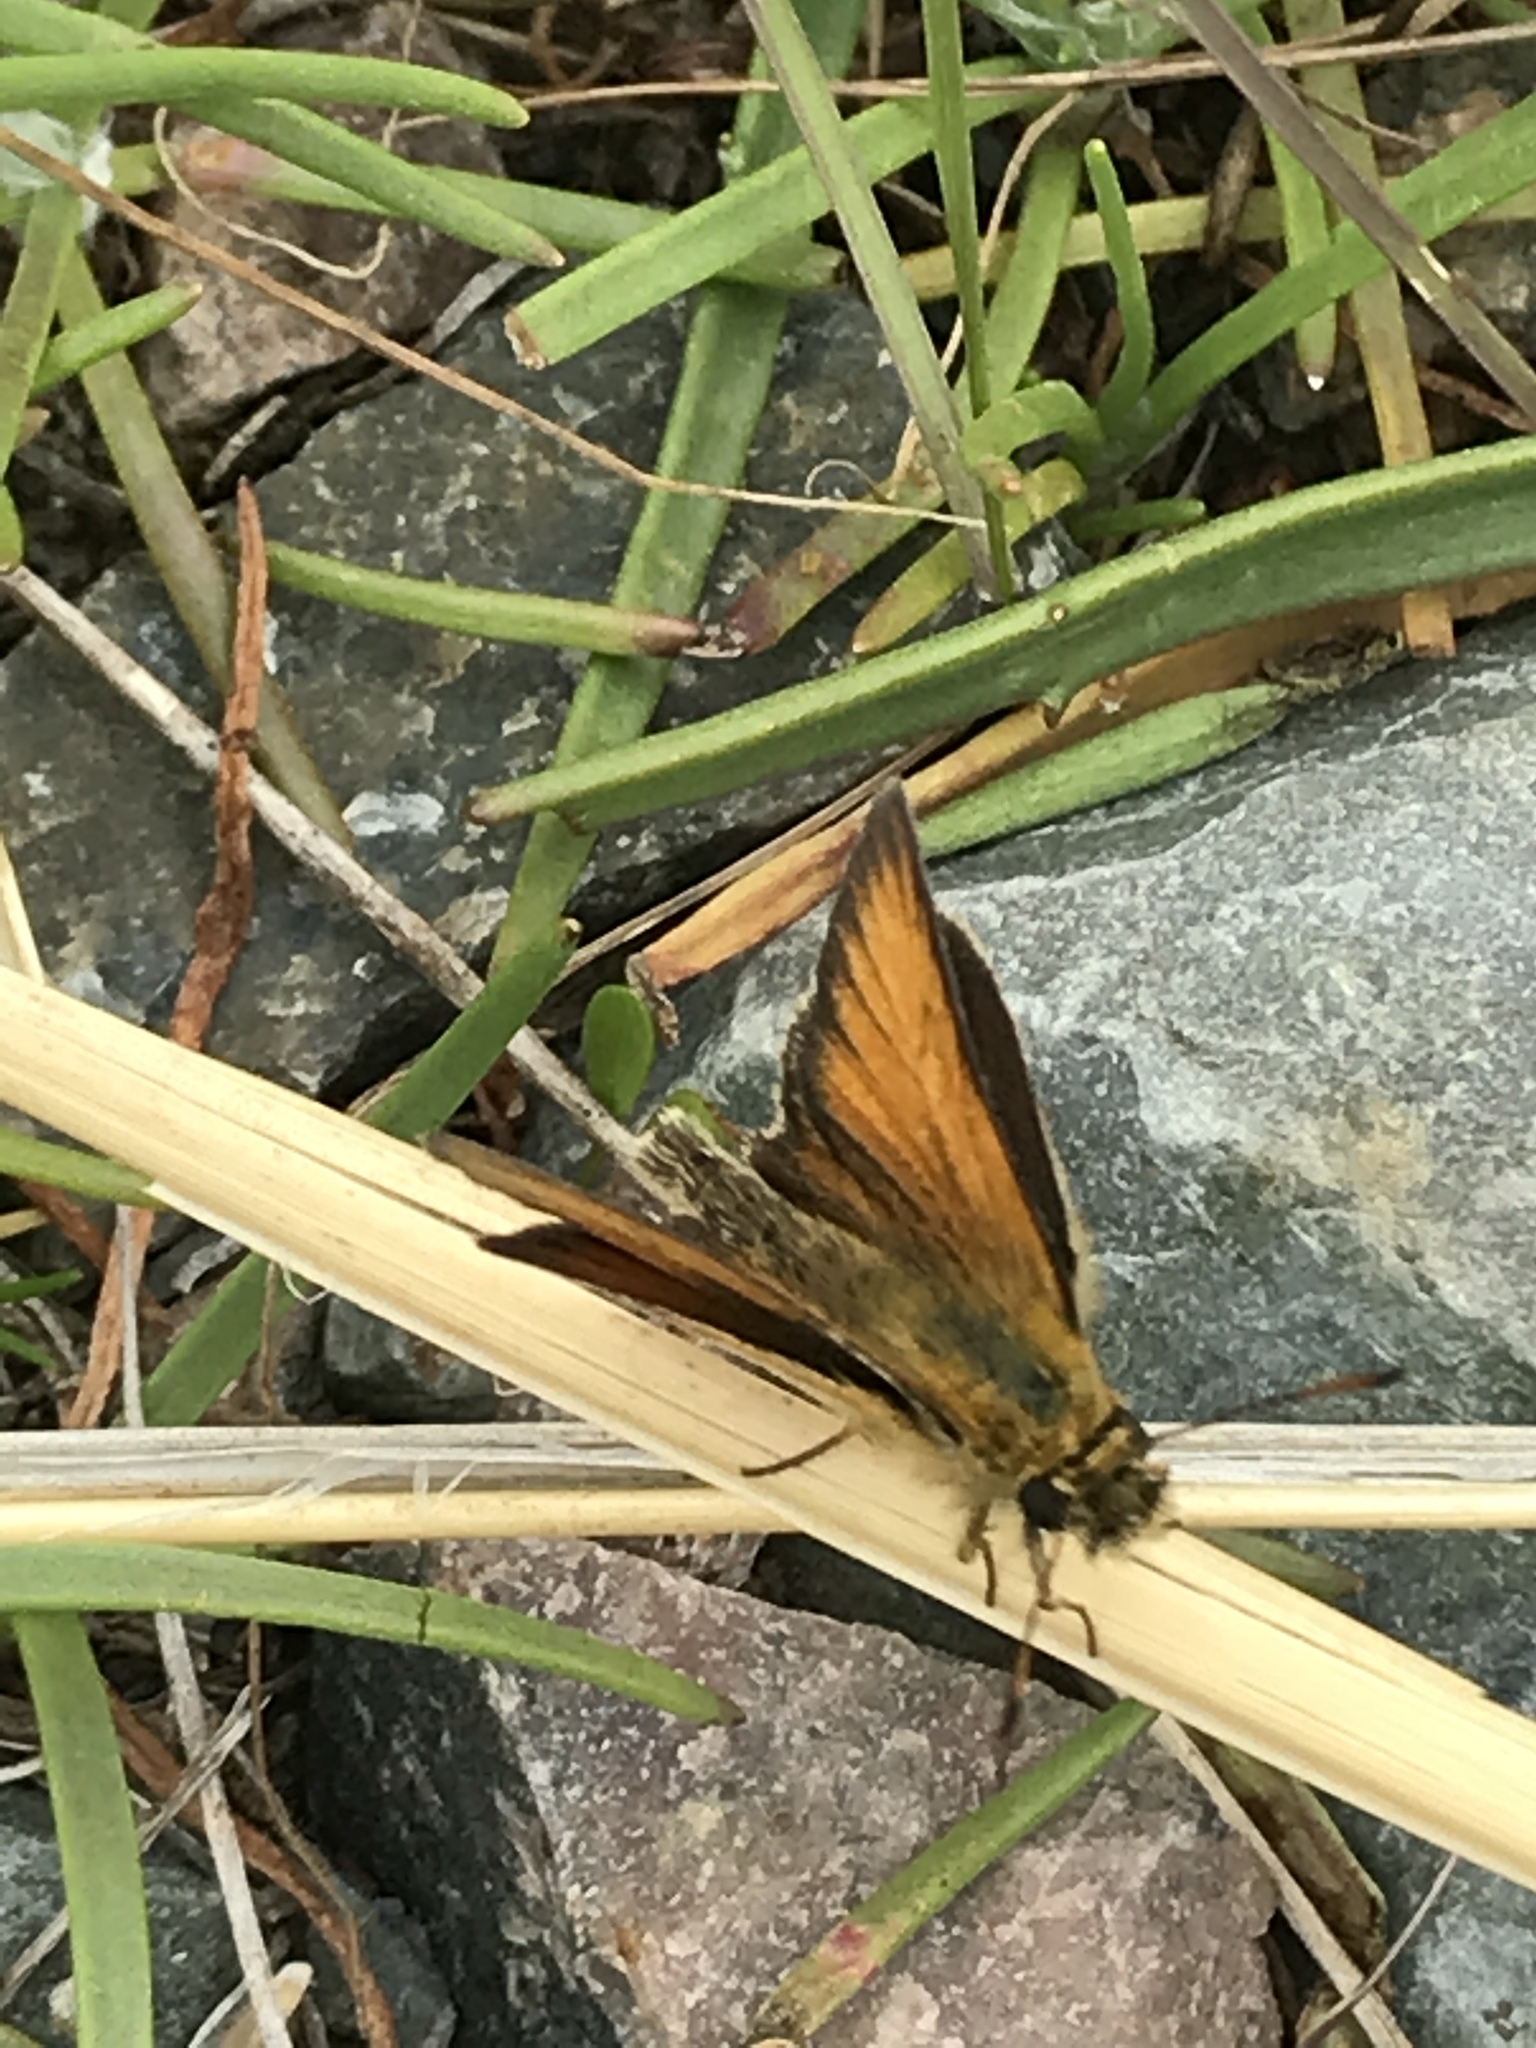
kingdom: Animalia
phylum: Arthropoda
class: Insecta
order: Lepidoptera
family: Hesperiidae
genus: Thymelicus
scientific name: Thymelicus lineola
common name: Essex skipper
